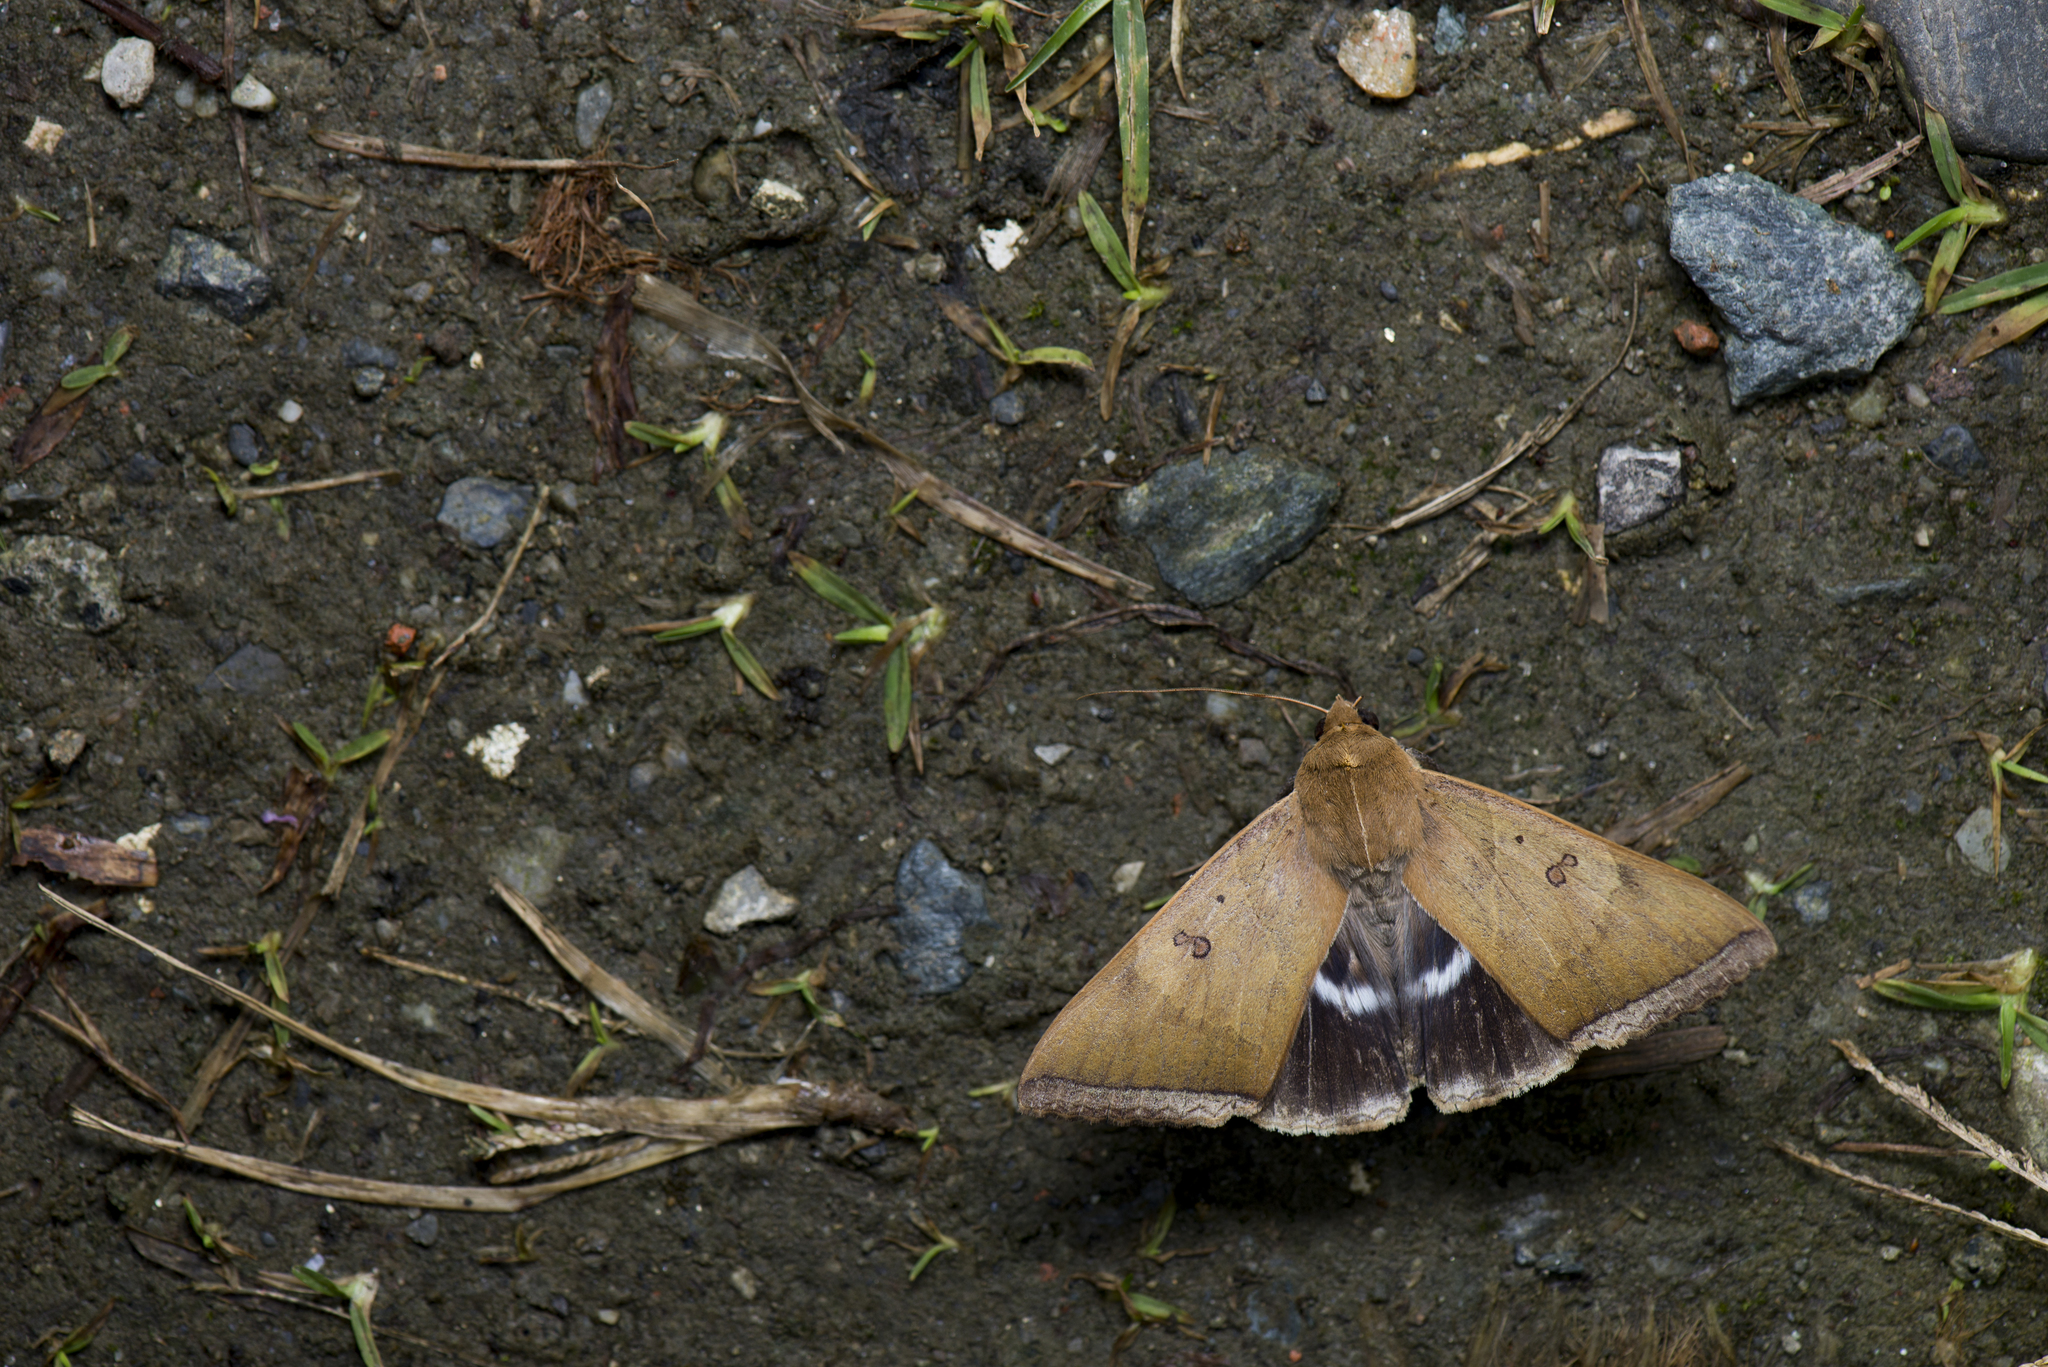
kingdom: Animalia
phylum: Arthropoda
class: Insecta
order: Lepidoptera
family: Erebidae
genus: Artena
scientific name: Artena dotata
